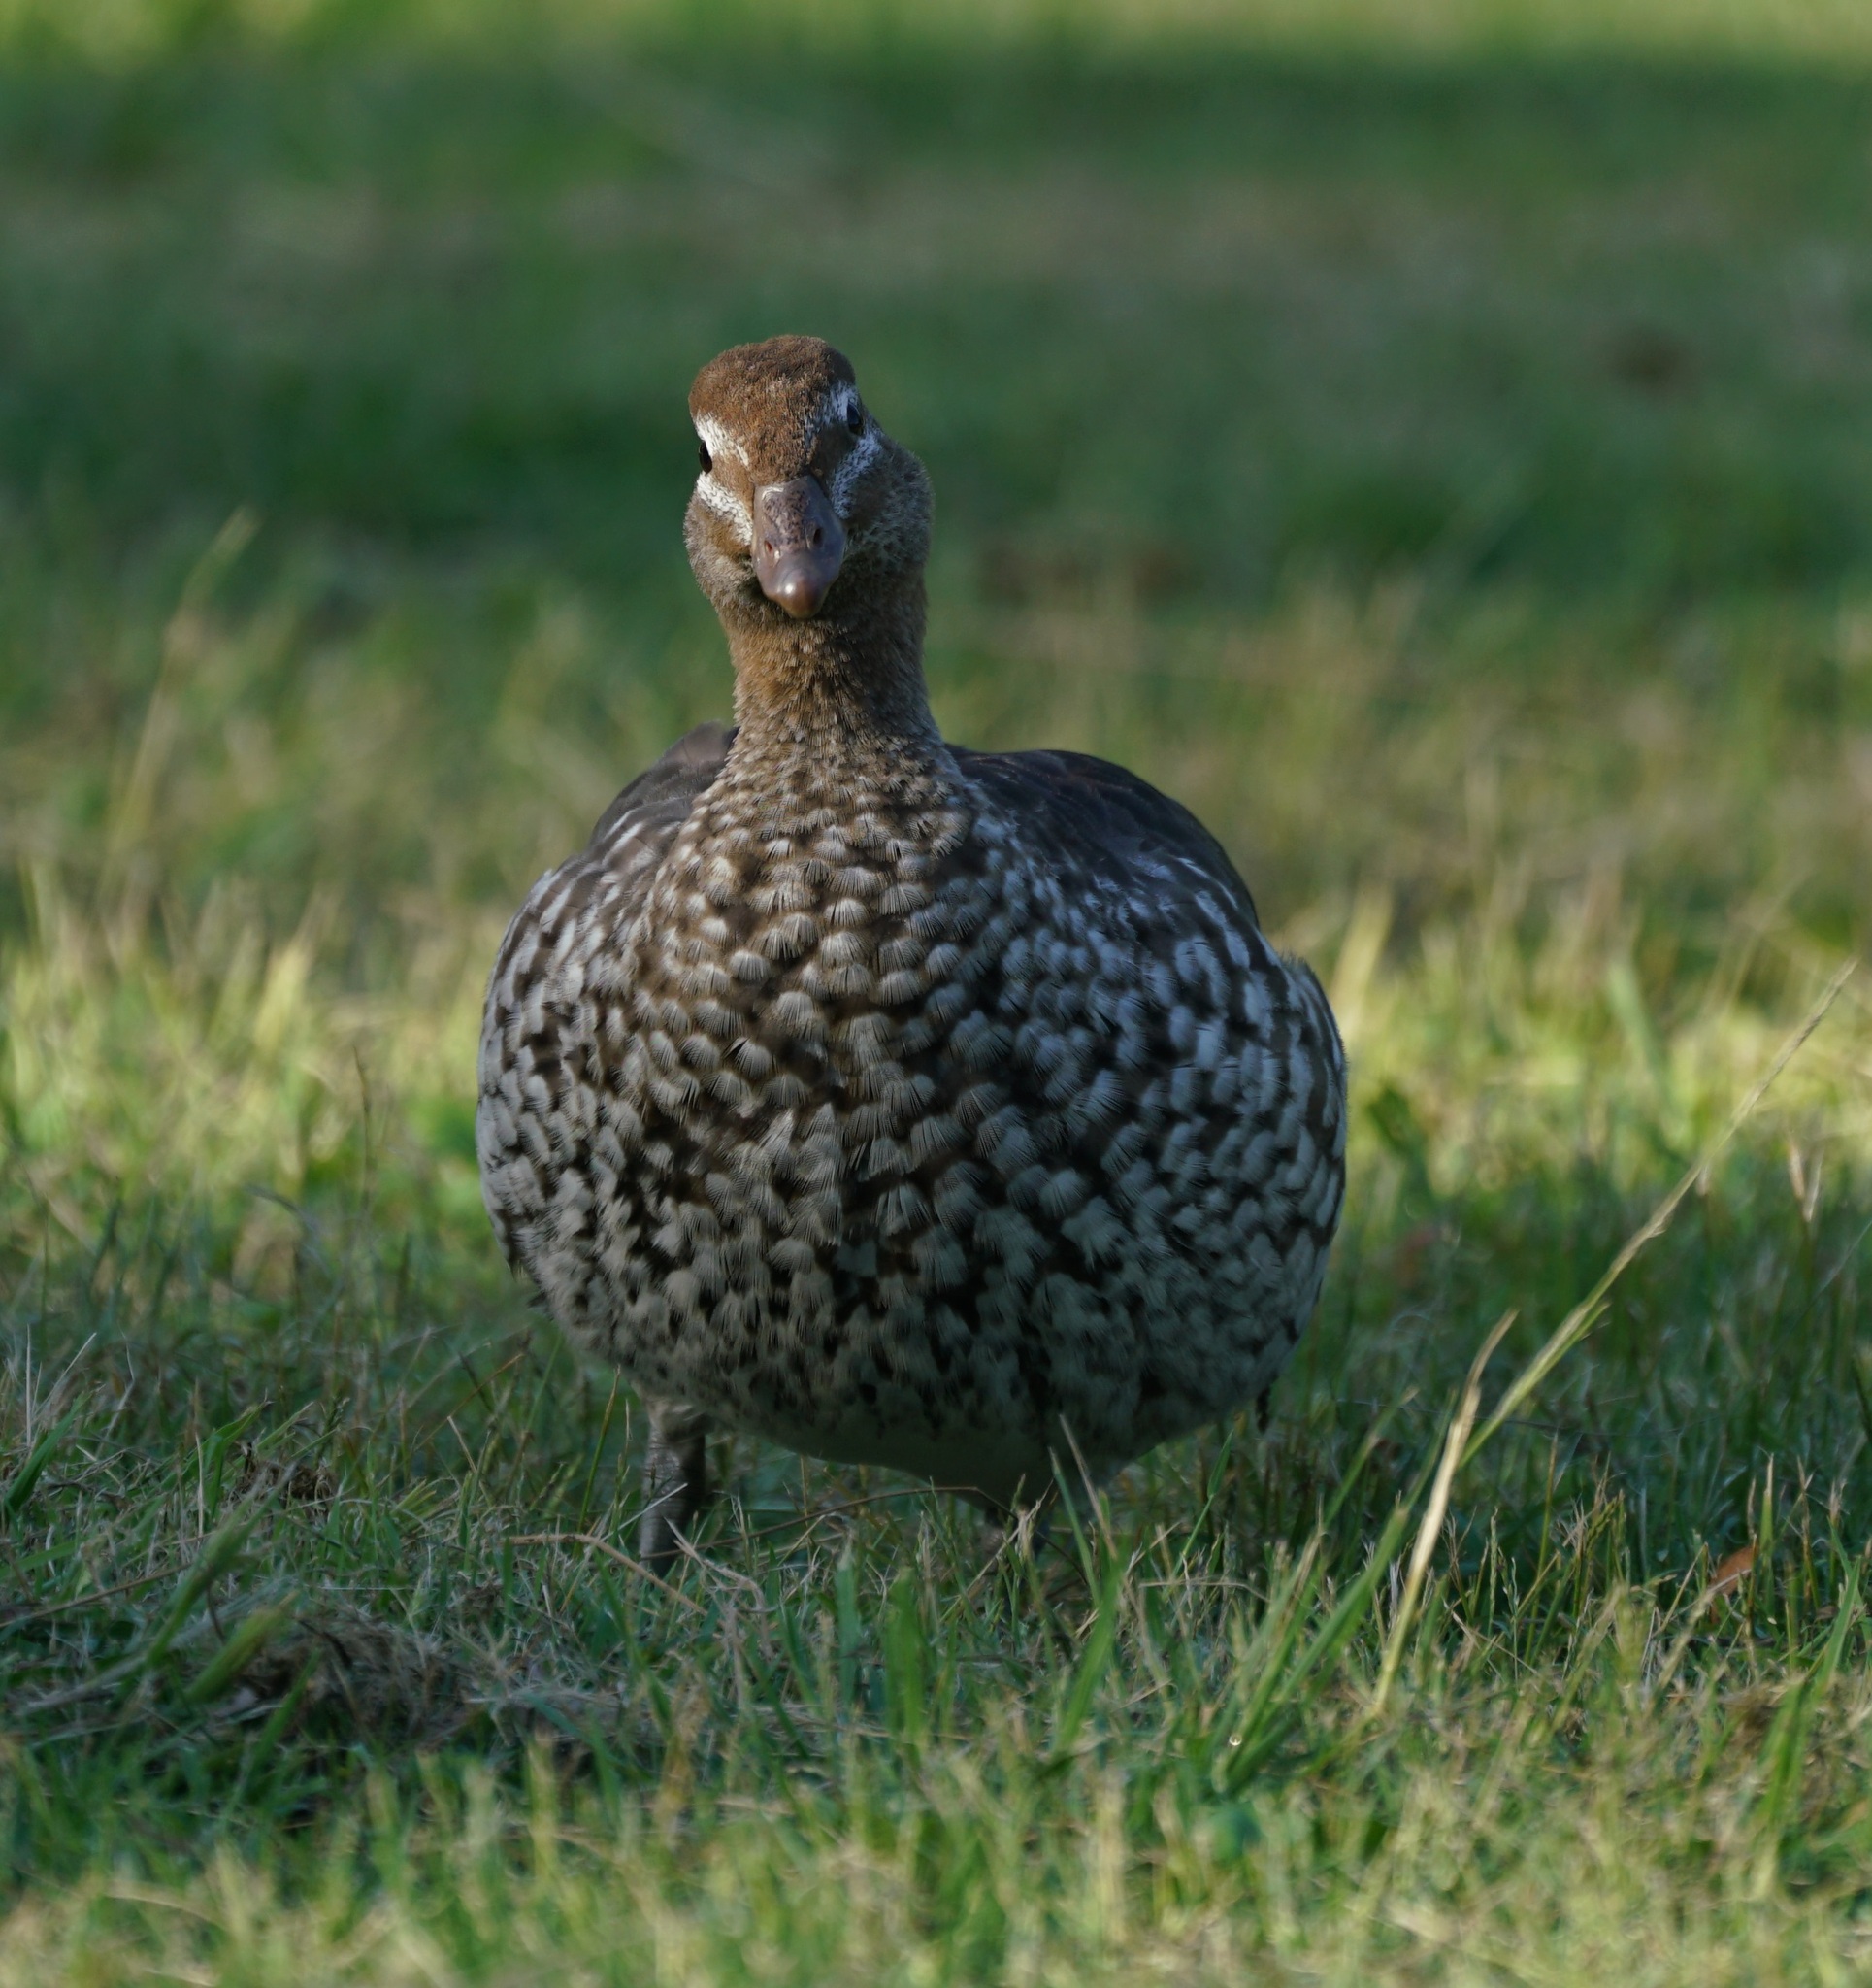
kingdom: Animalia
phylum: Chordata
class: Aves
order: Anseriformes
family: Anatidae
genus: Chenonetta
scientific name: Chenonetta jubata
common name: Maned duck
